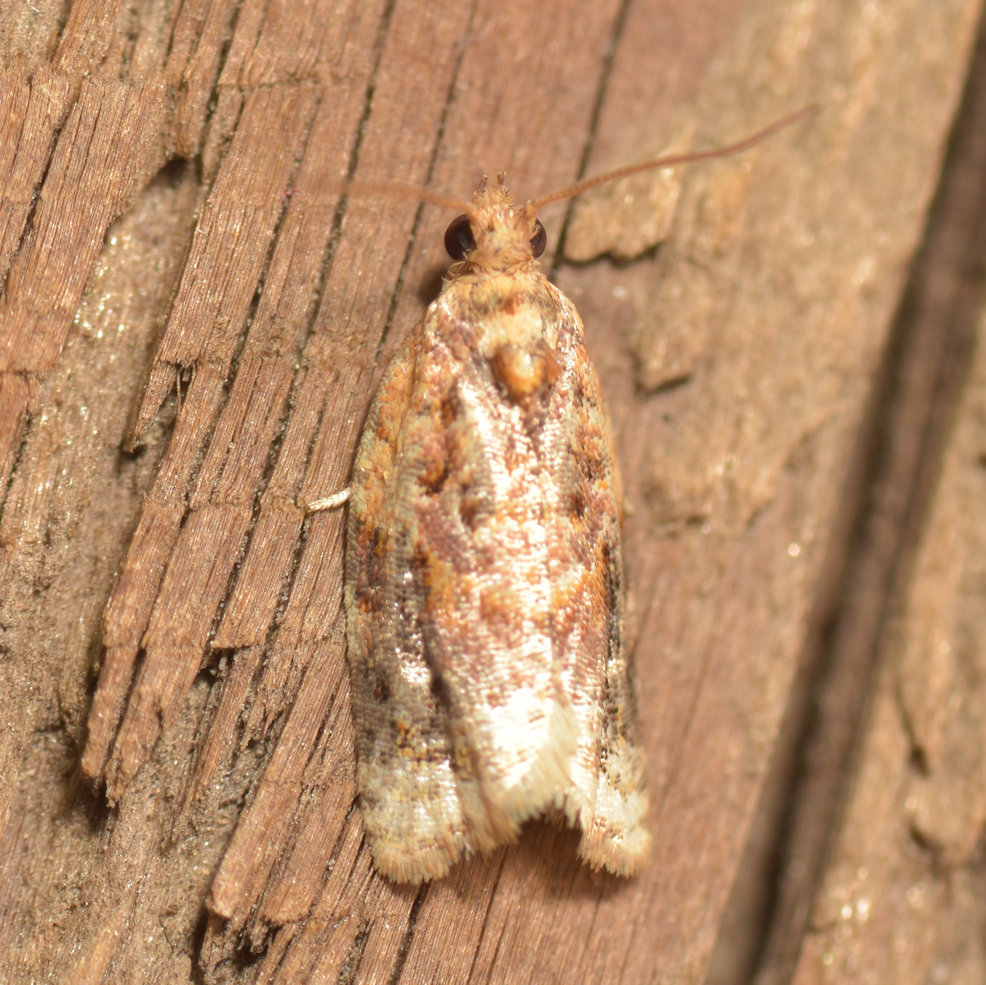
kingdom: Animalia
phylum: Arthropoda
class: Insecta
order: Lepidoptera
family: Tortricidae
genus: Argyrotaenia
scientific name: Argyrotaenia velutinana
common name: Red-banded leafroller moth
